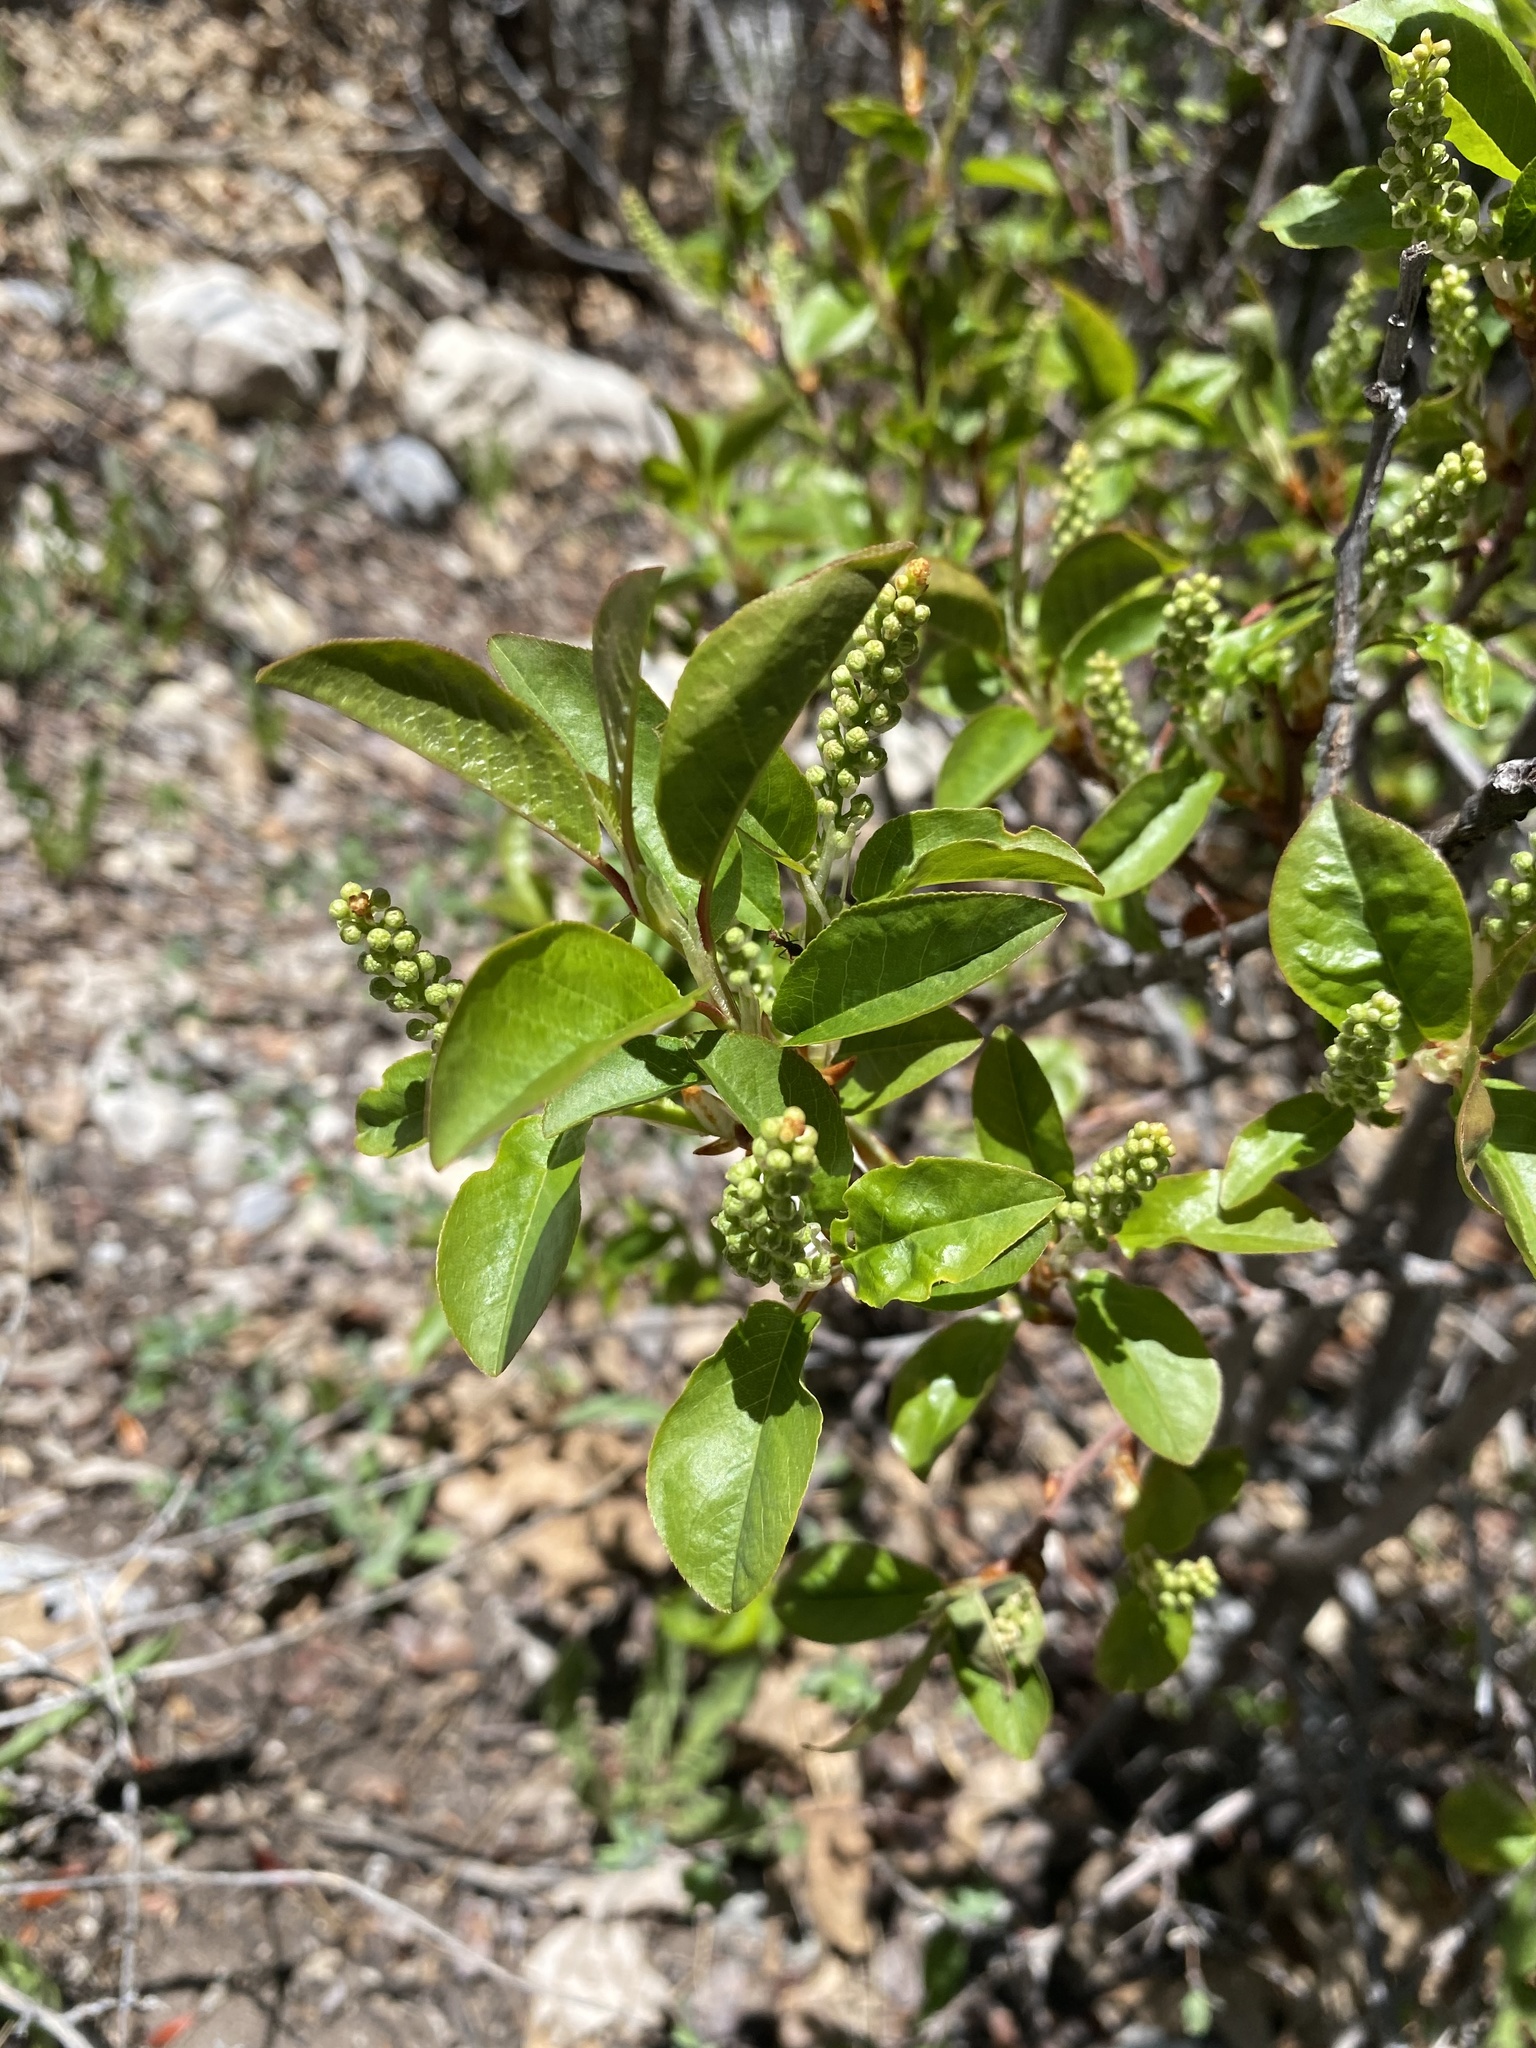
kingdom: Plantae
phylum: Tracheophyta
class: Magnoliopsida
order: Rosales
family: Rosaceae
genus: Prunus
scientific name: Prunus virginiana
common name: Chokecherry
